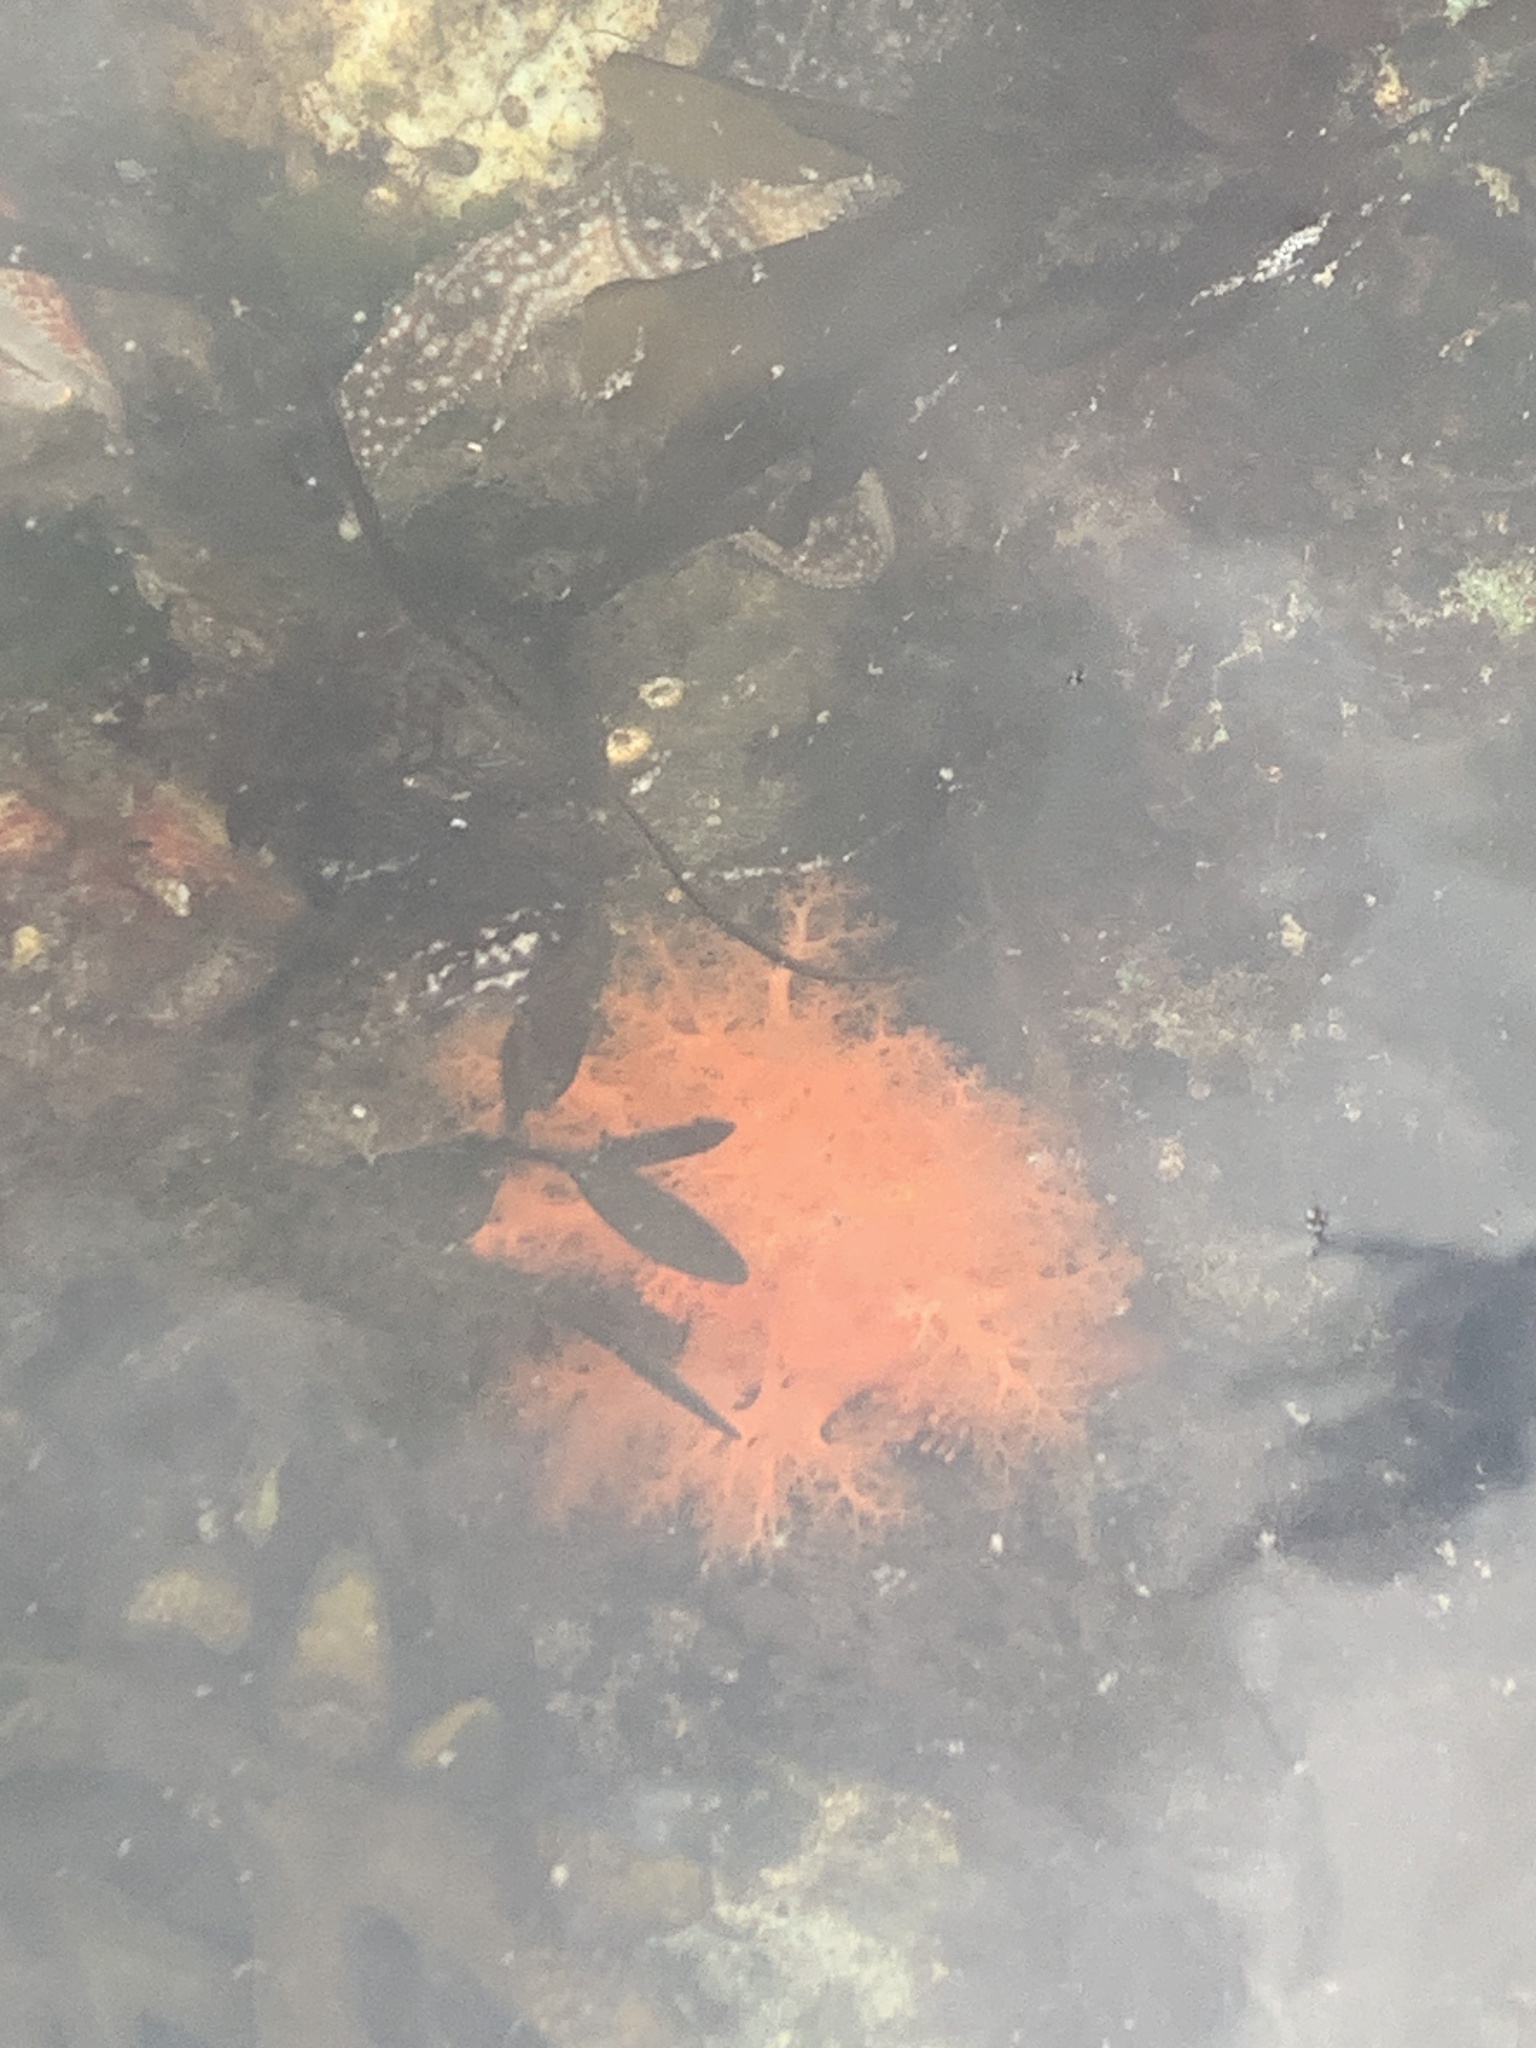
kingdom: Animalia
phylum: Echinodermata
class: Holothuroidea
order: Dendrochirotida
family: Cucumariidae
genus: Cucumaria
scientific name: Cucumaria miniata
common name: Orange sea cucumber
